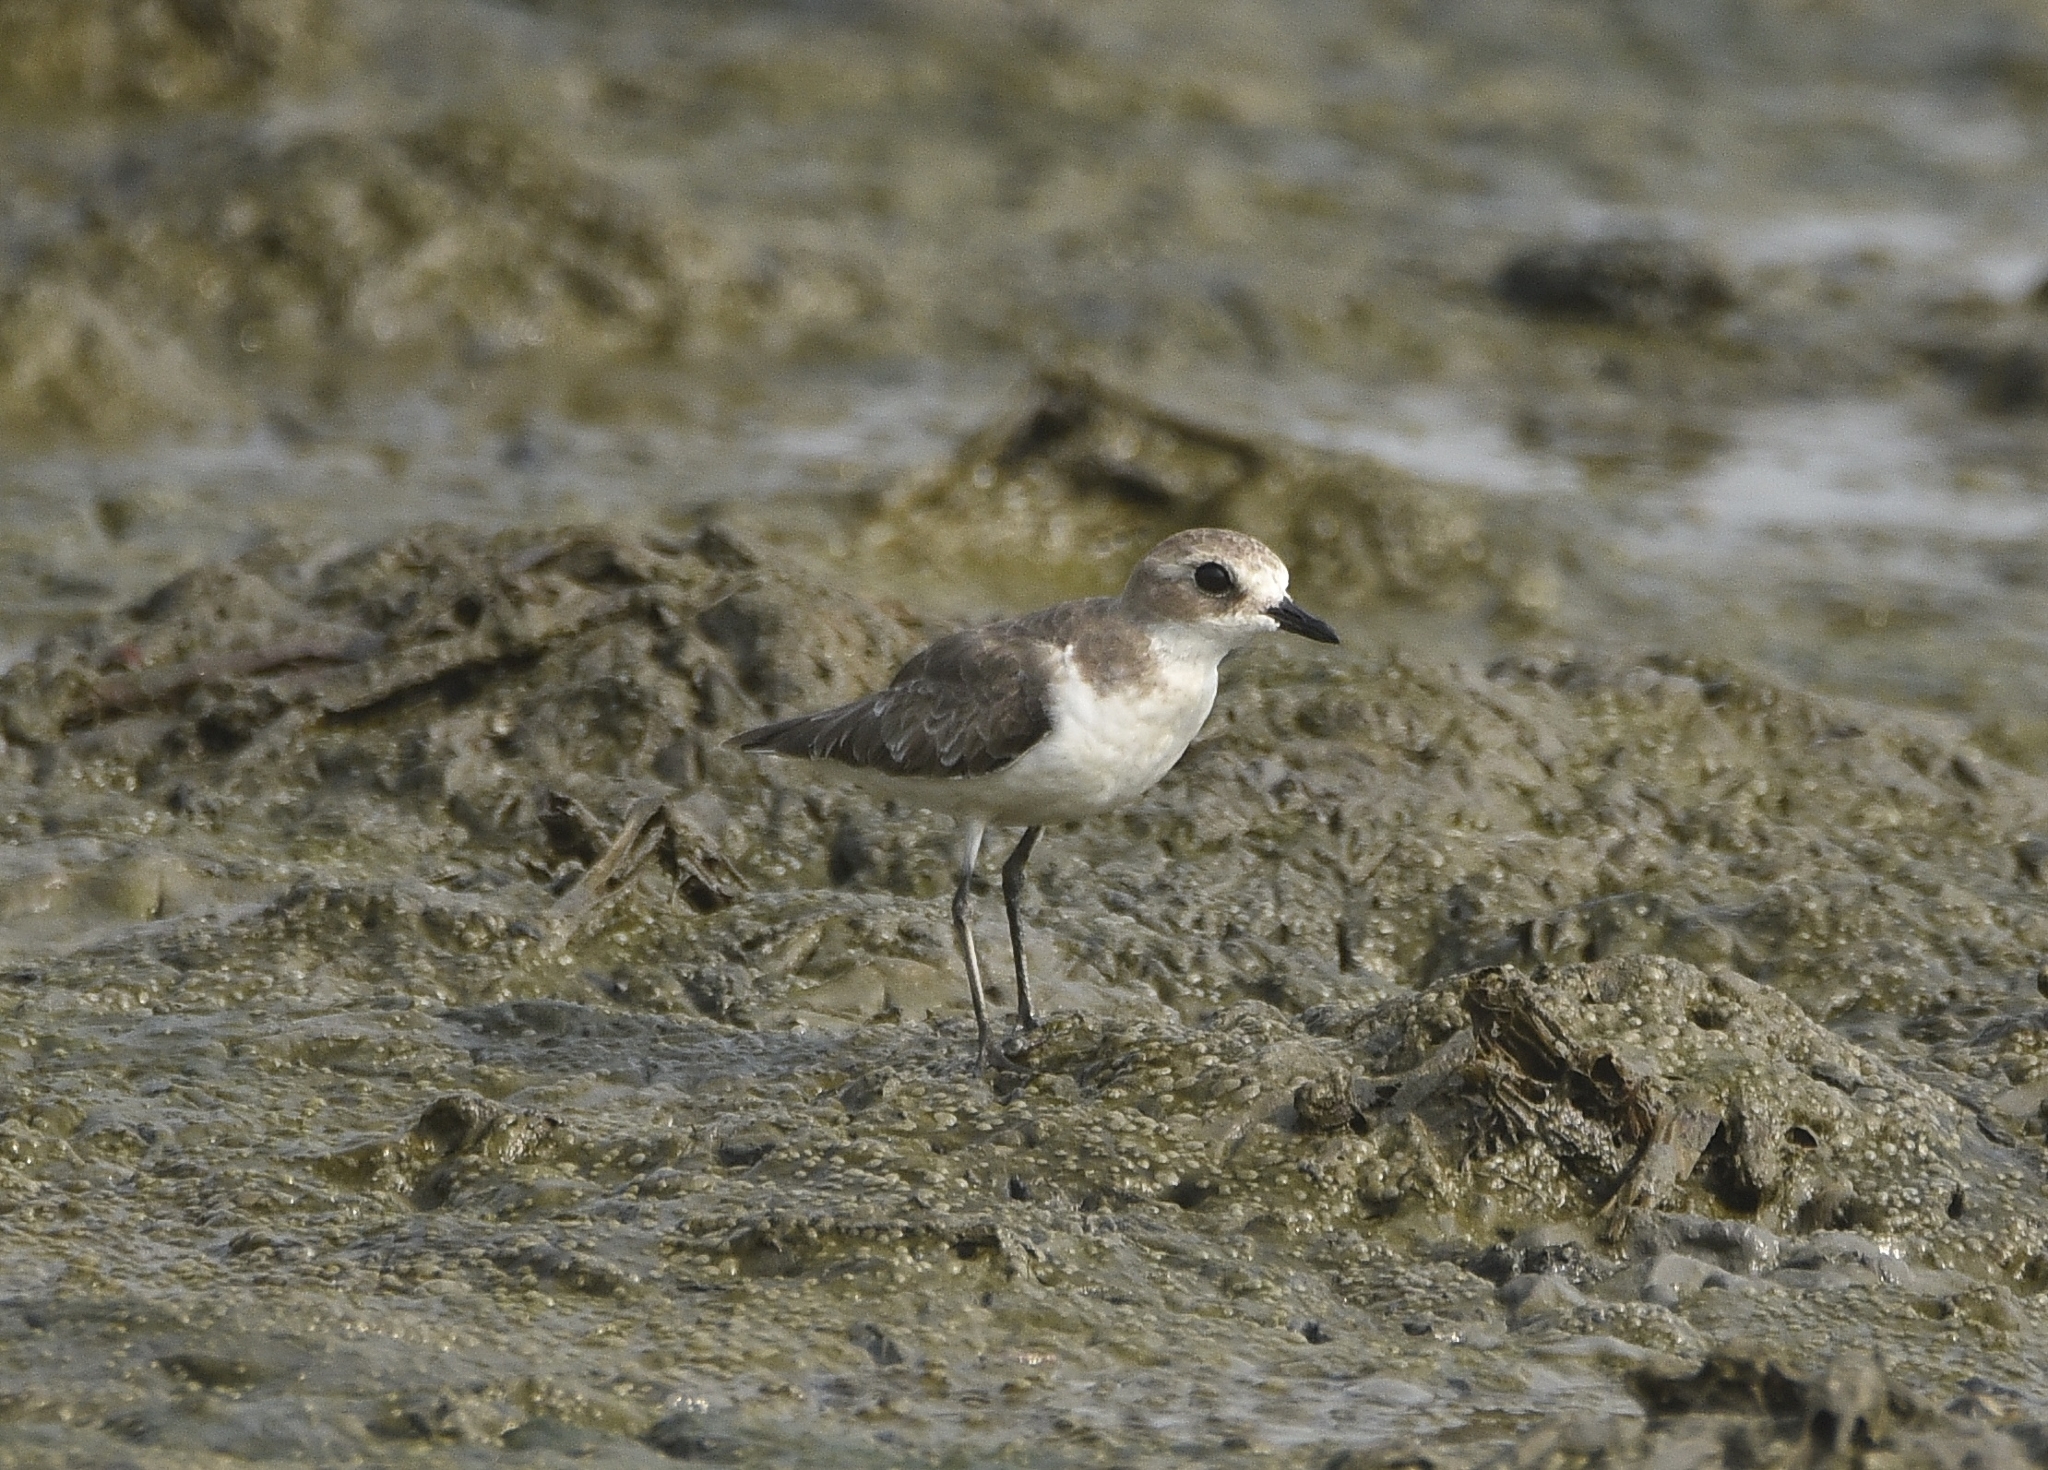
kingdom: Animalia
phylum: Chordata
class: Aves
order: Charadriiformes
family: Charadriidae
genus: Anarhynchus
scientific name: Anarhynchus
